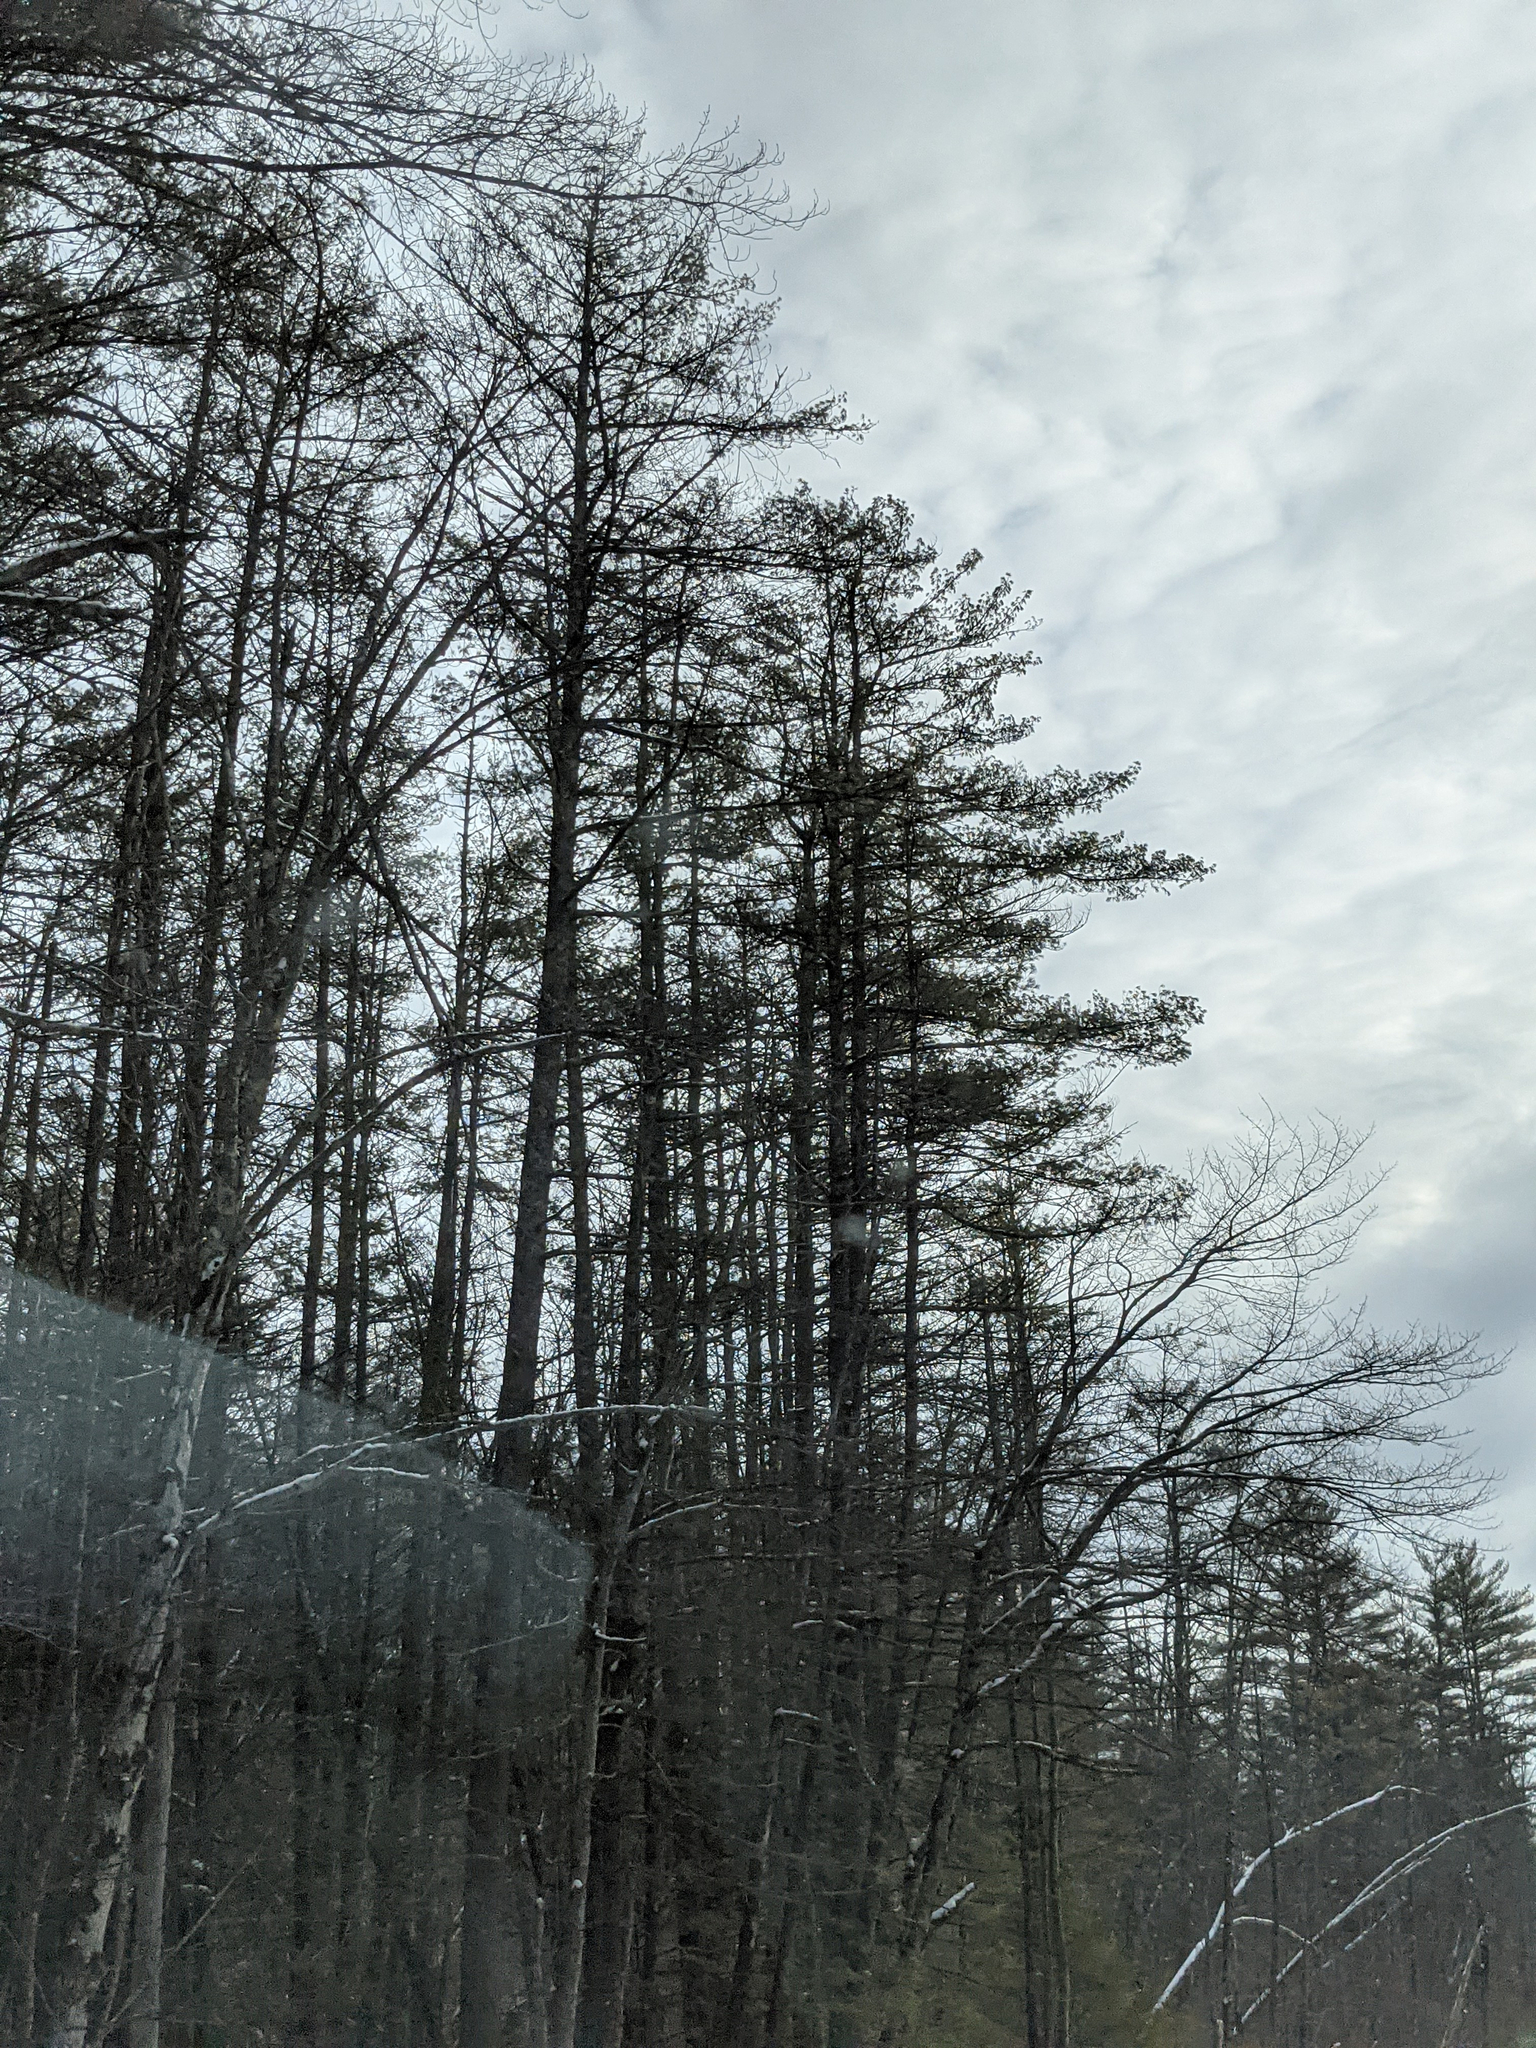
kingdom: Plantae
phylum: Tracheophyta
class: Pinopsida
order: Pinales
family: Pinaceae
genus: Pinus
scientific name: Pinus strobus
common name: Weymouth pine
